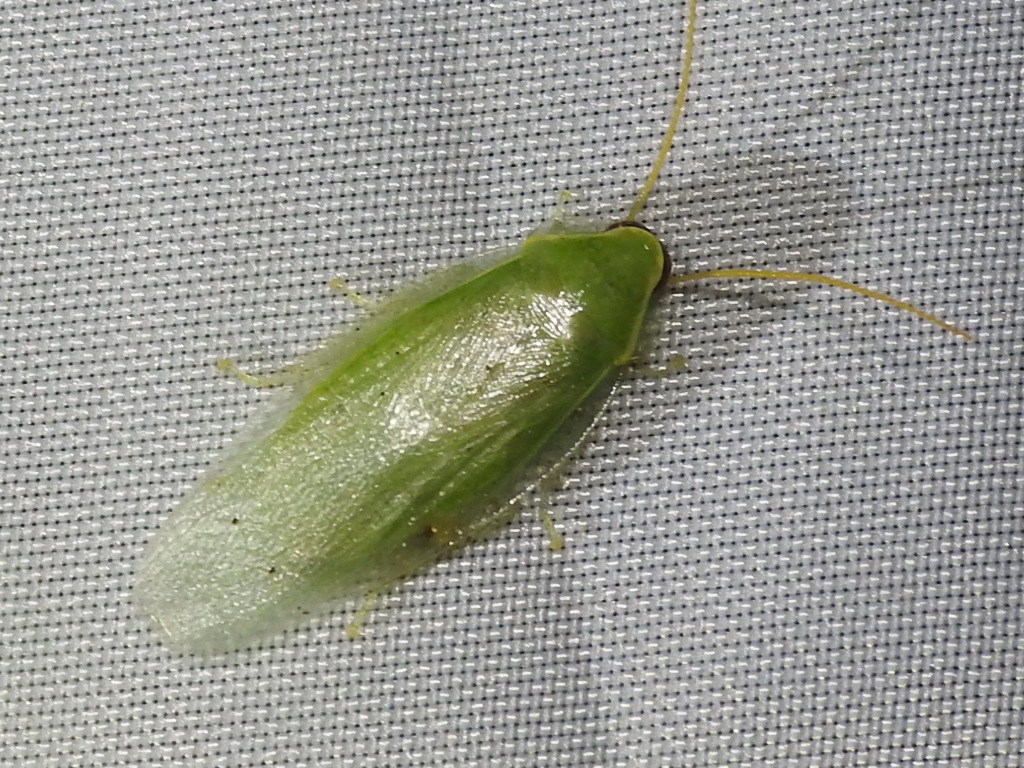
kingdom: Animalia
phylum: Arthropoda
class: Insecta
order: Blattodea
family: Blaberidae
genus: Panchlora
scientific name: Panchlora nivea
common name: Cuban cockroach
